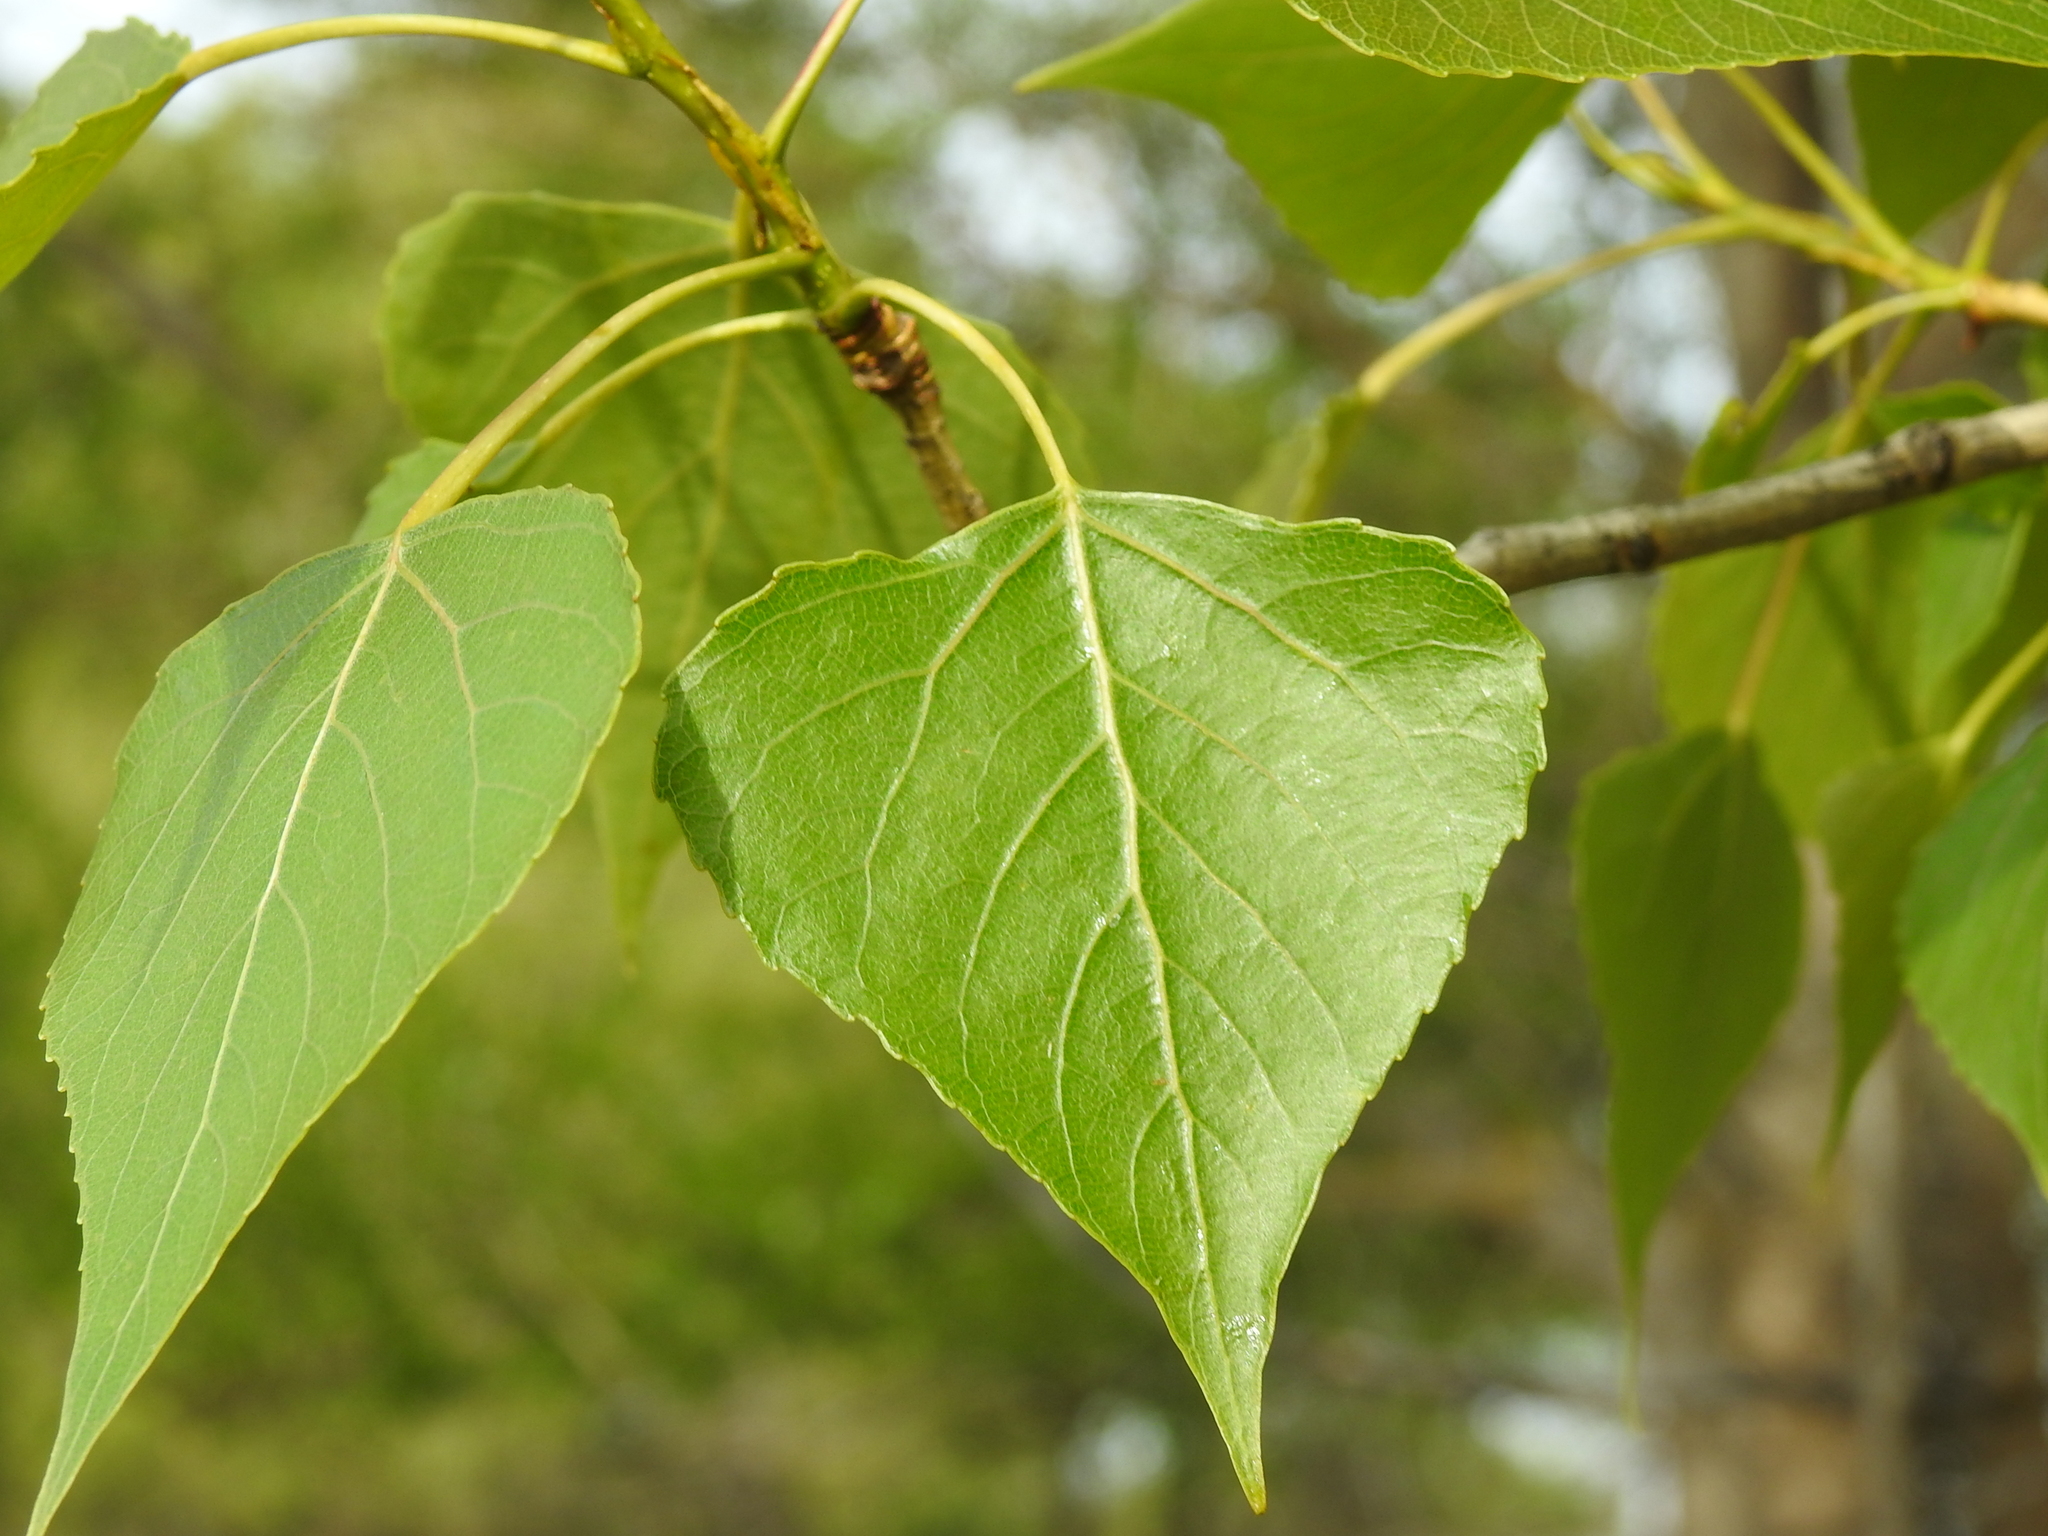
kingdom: Plantae
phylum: Tracheophyta
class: Magnoliopsida
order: Malpighiales
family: Salicaceae
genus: Populus
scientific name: Populus nigra
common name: Black poplar
